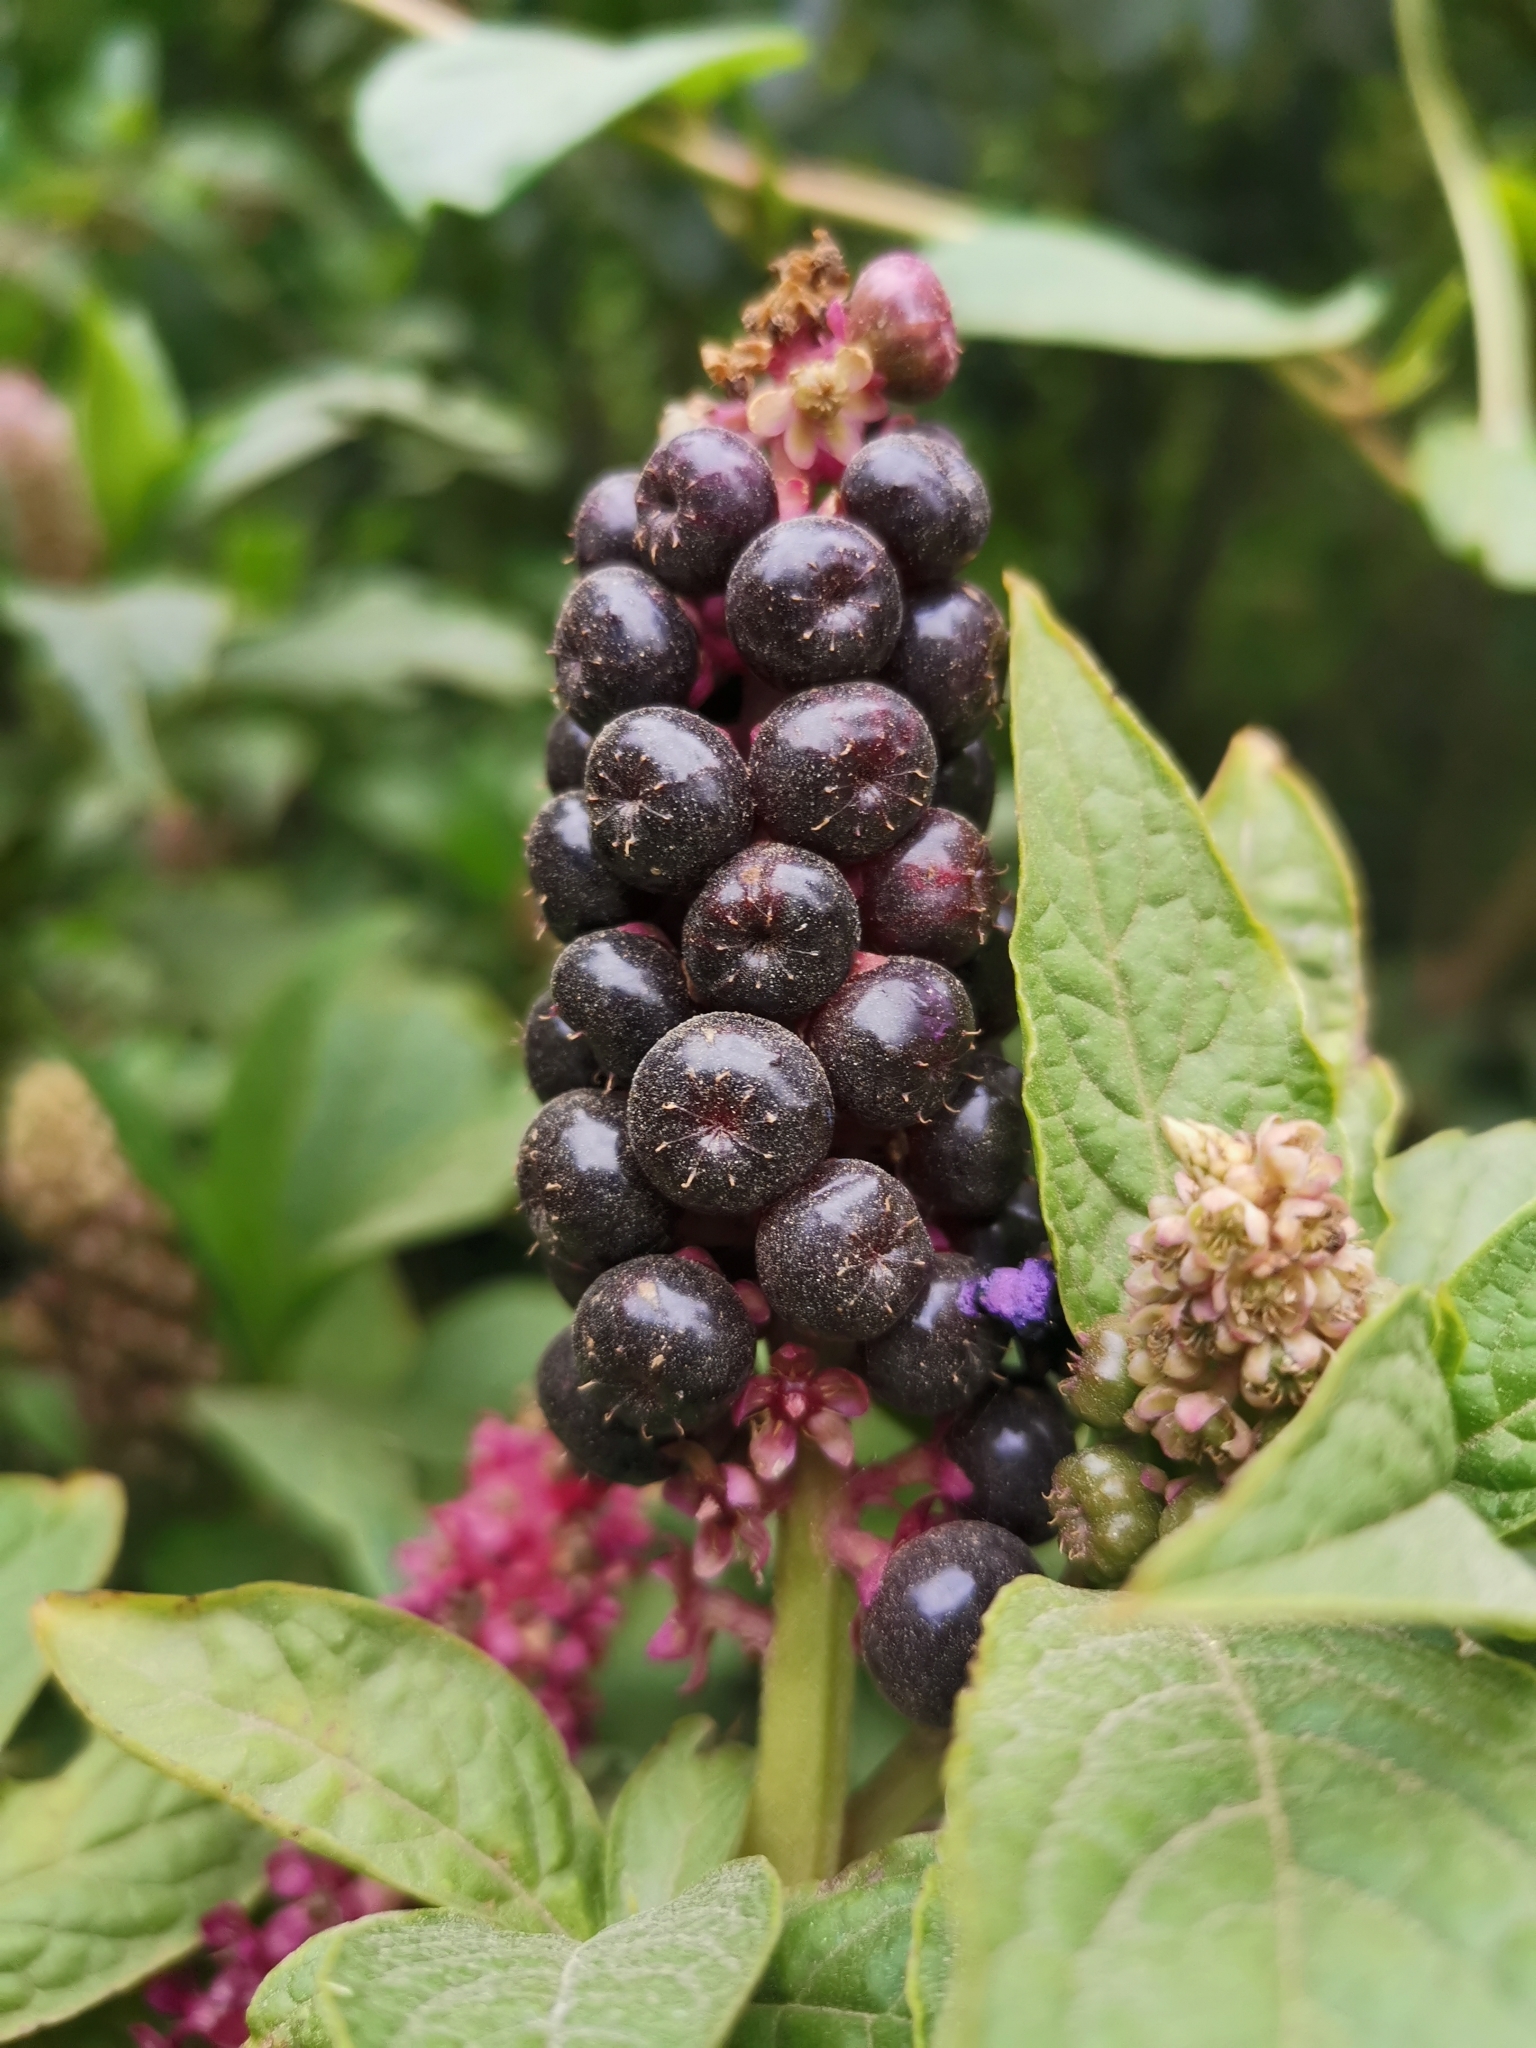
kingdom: Plantae
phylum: Tracheophyta
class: Magnoliopsida
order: Caryophyllales
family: Phytolaccaceae
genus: Phytolacca
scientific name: Phytolacca bogotensis
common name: Southern pokeweed
